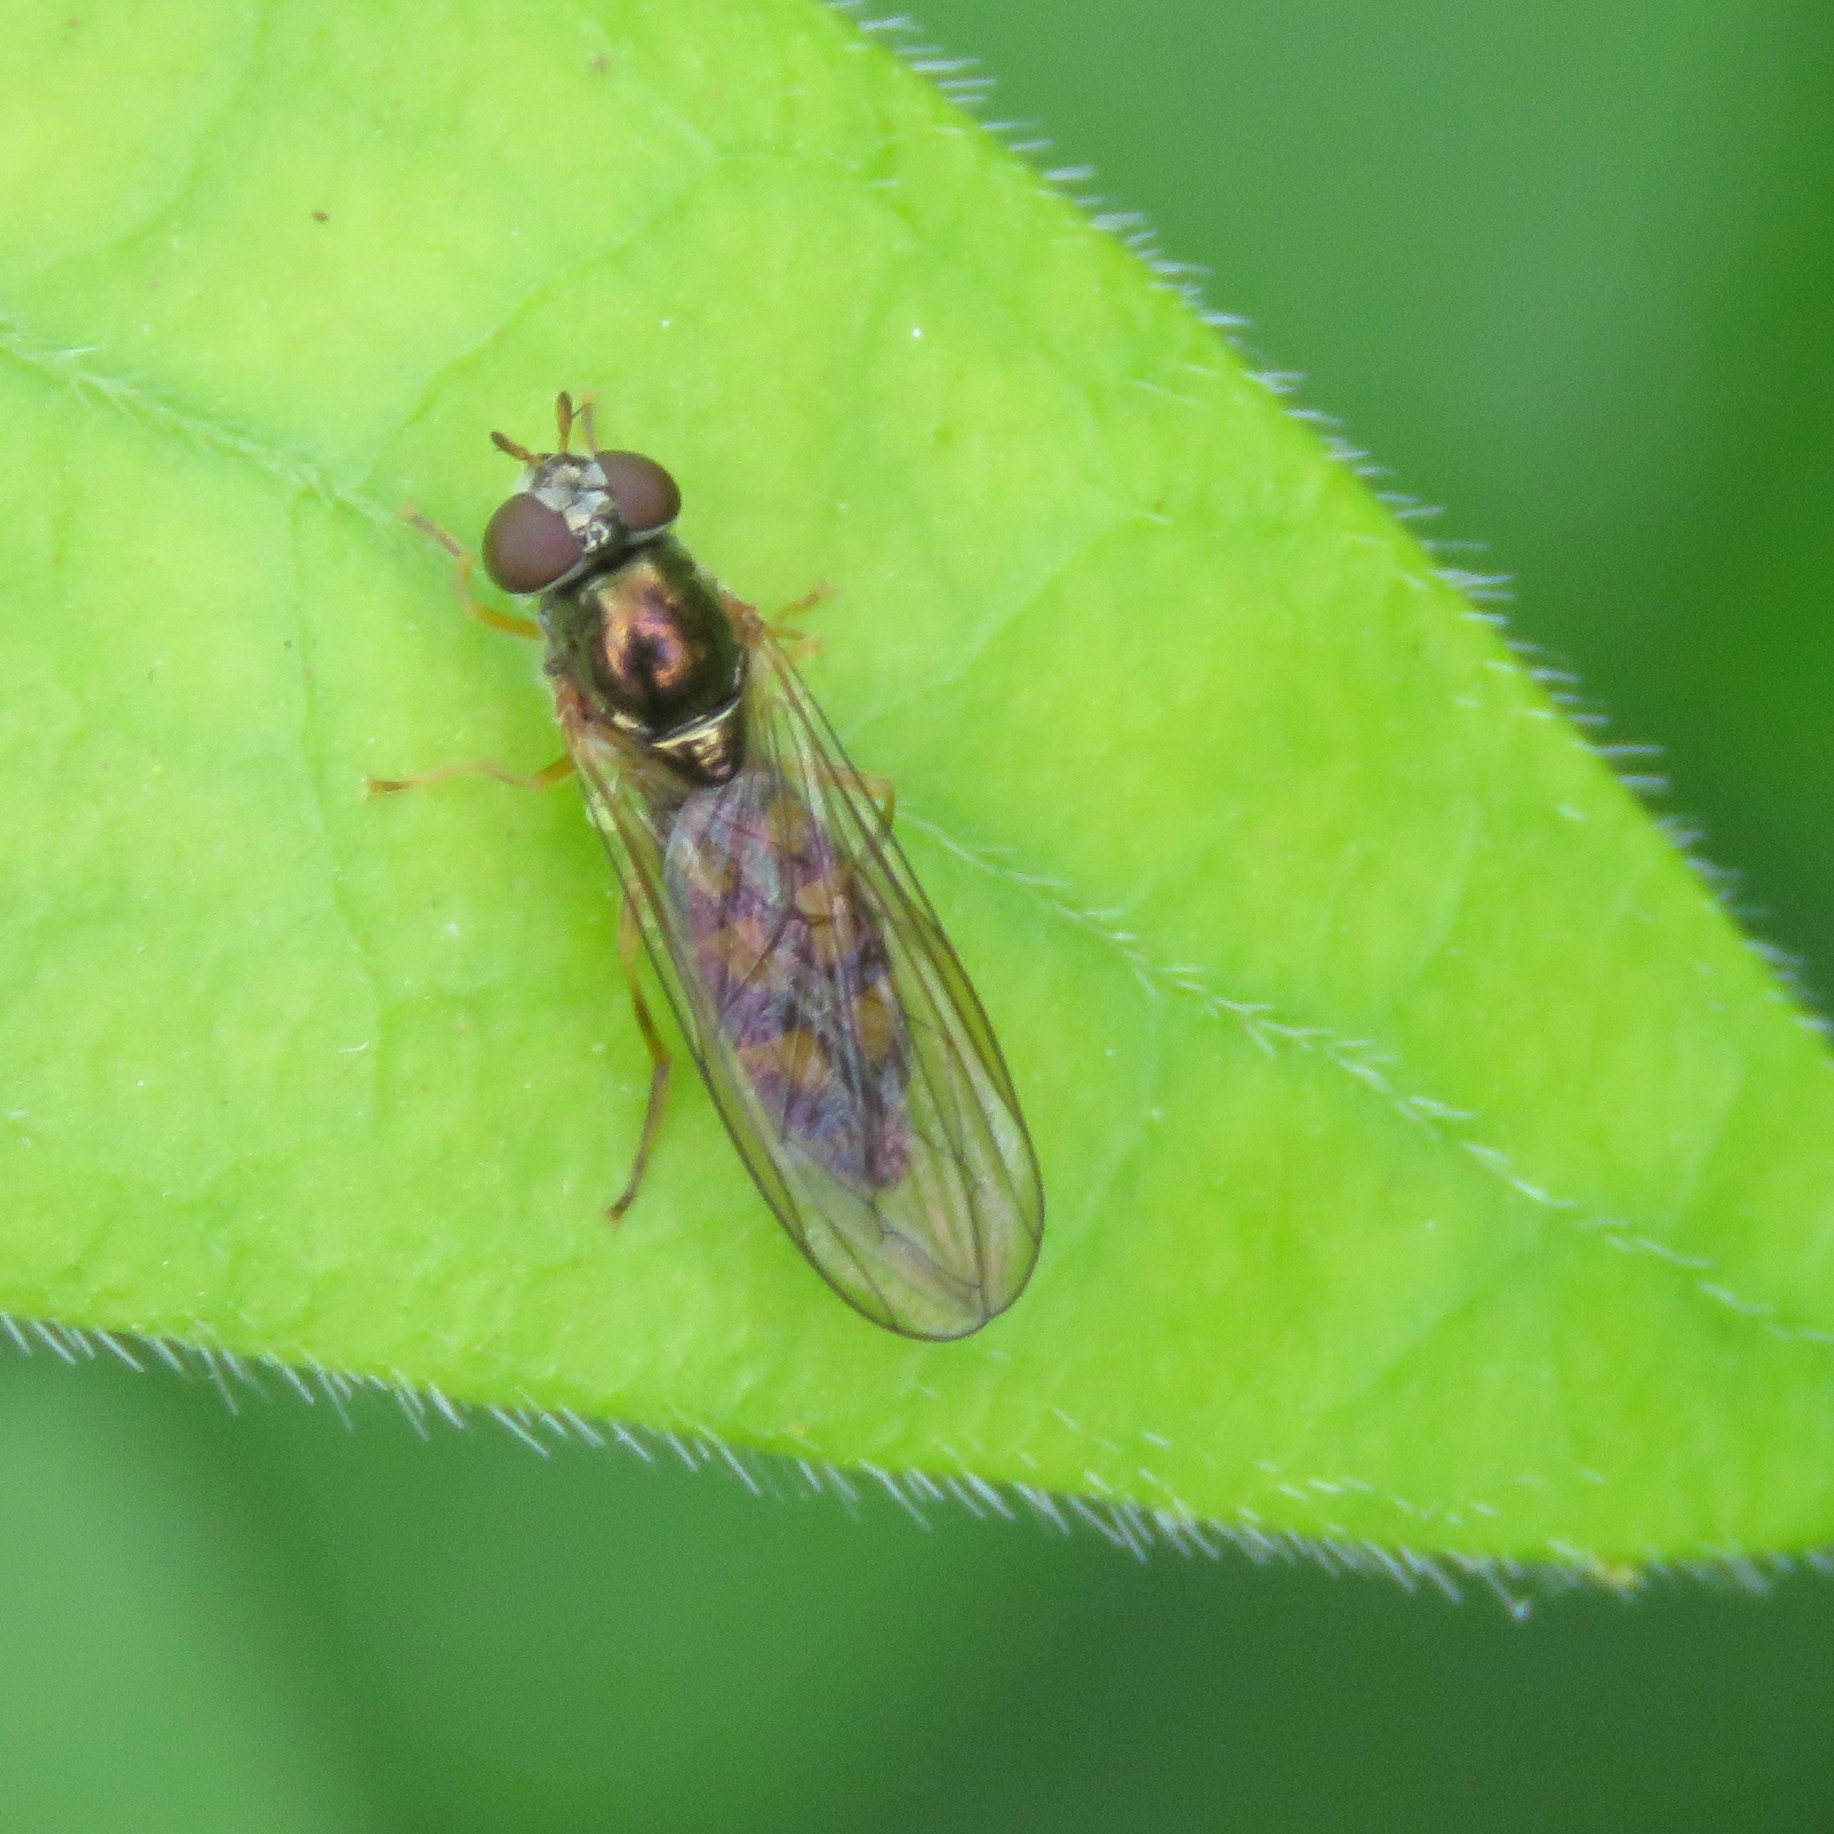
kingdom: Animalia
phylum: Arthropoda
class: Insecta
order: Diptera
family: Syrphidae
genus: Melanostoma
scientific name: Melanostoma scalare
